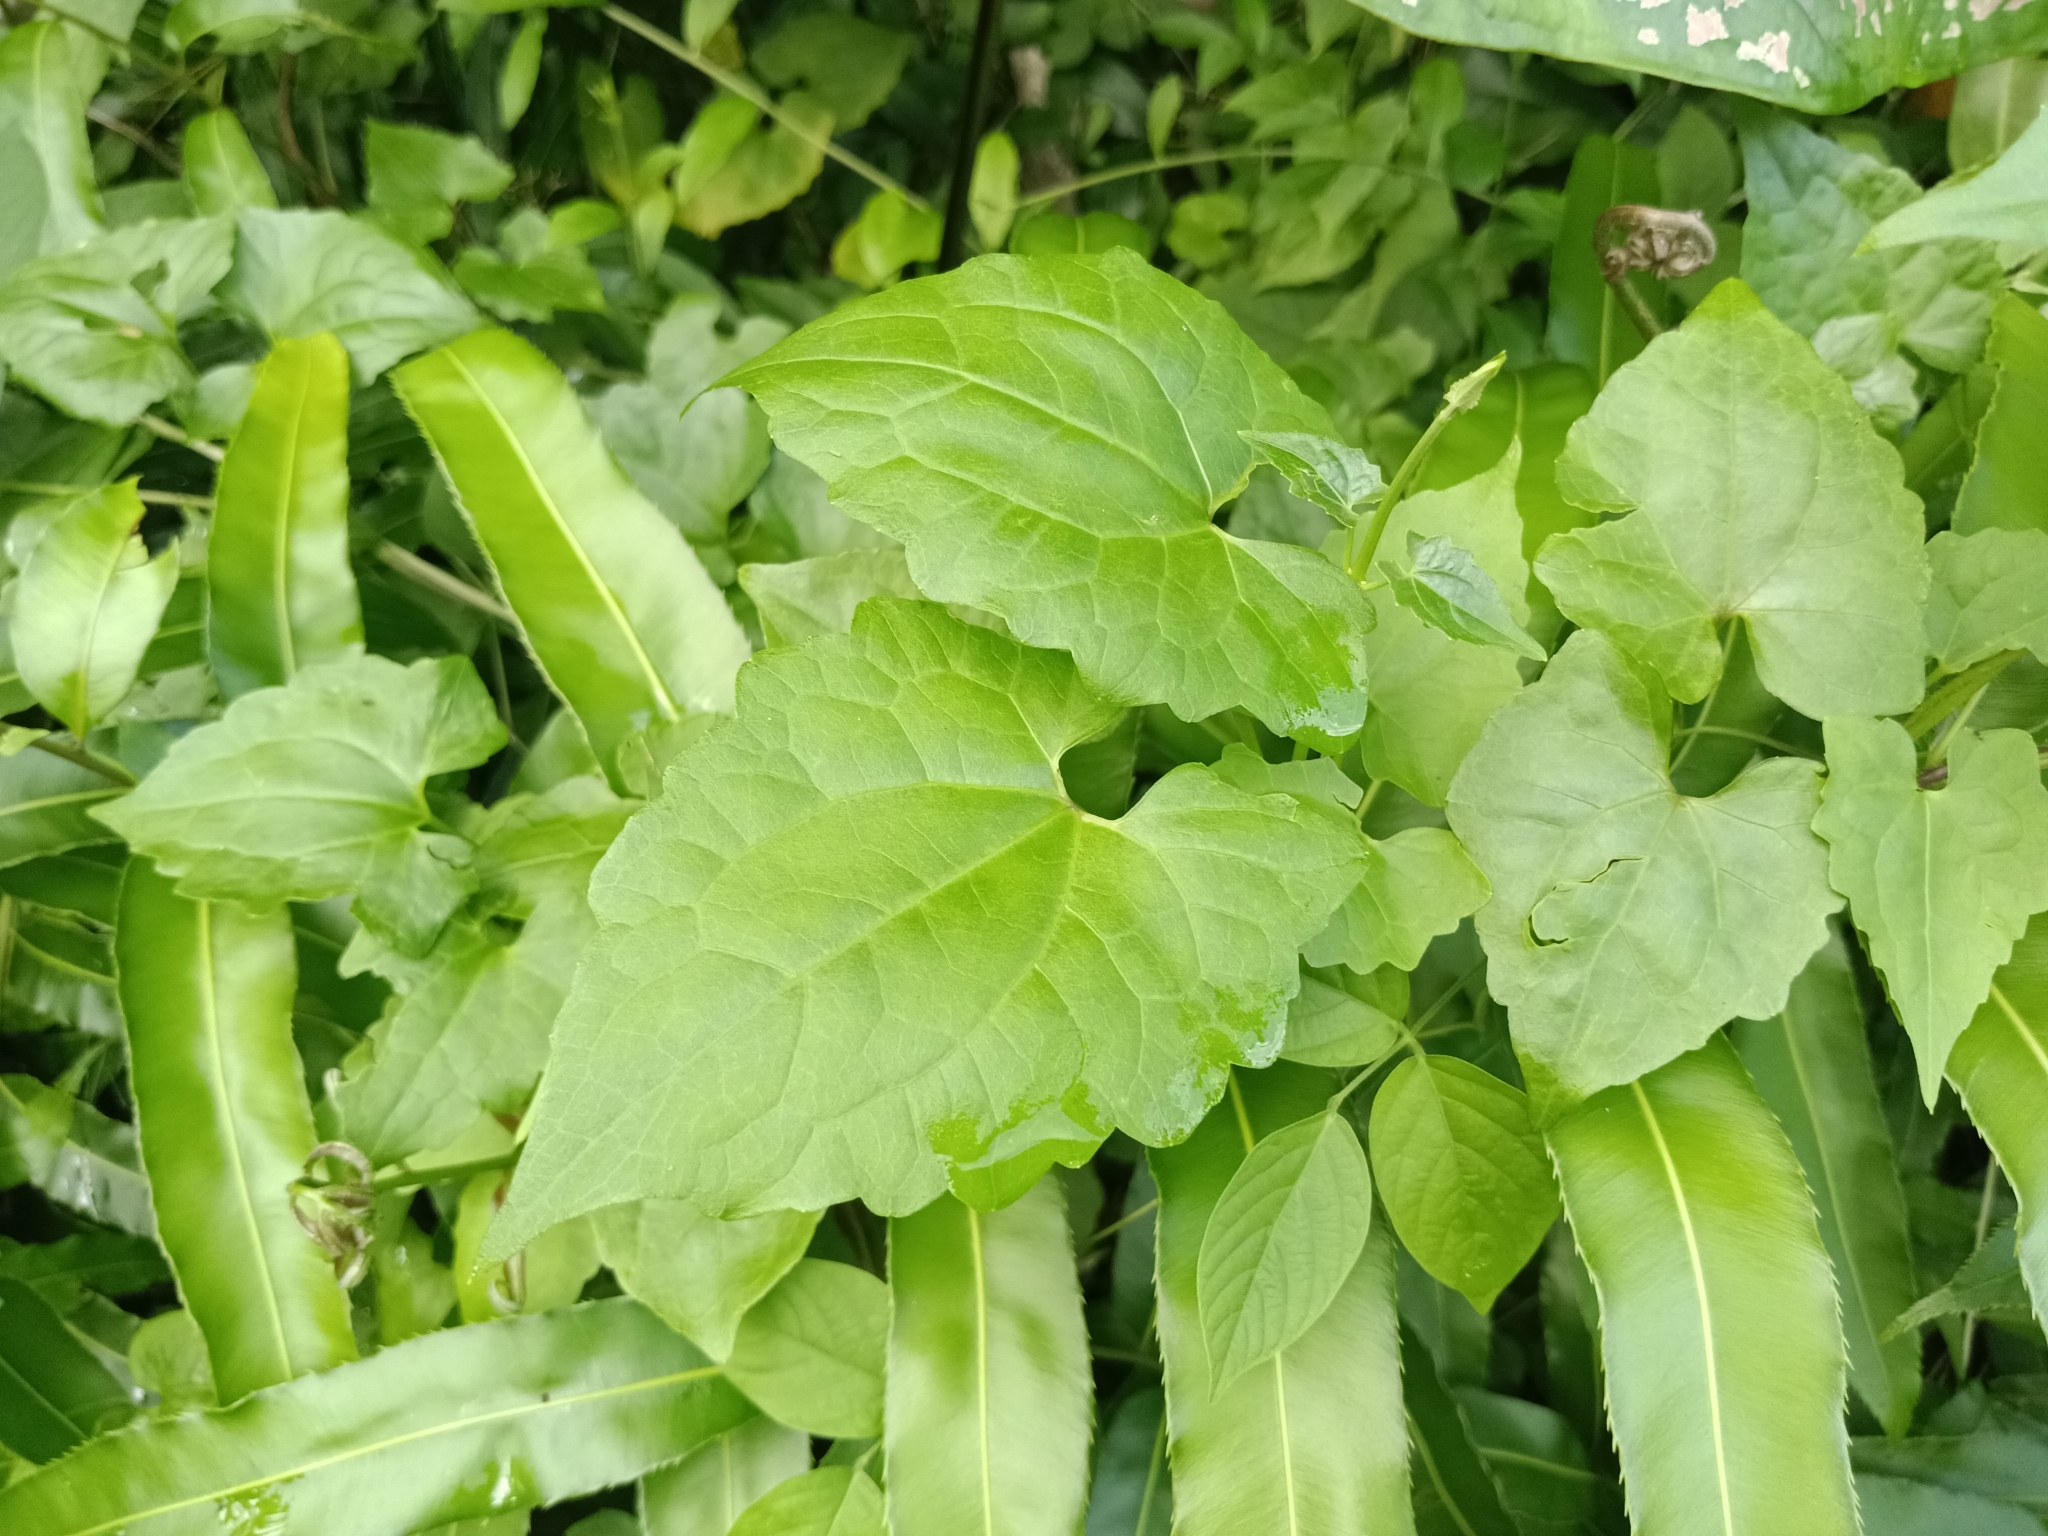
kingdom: Plantae
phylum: Tracheophyta
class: Magnoliopsida
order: Asterales
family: Asteraceae
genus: Mikania
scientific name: Mikania micrantha
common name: Mile-a-minute
